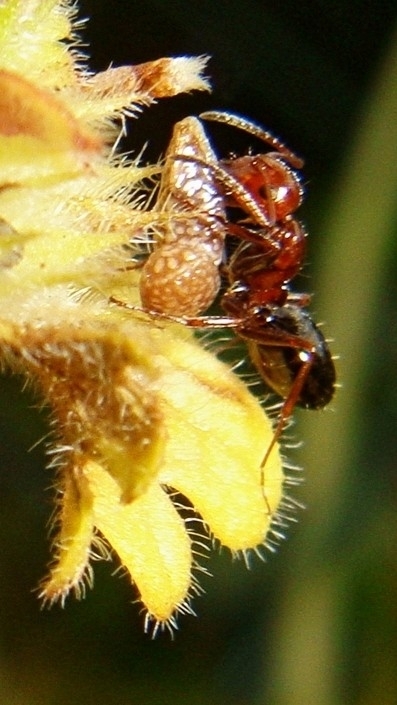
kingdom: Plantae
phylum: Tracheophyta
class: Magnoliopsida
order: Lamiales
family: Lamiaceae
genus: Lamium
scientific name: Lamium amplexicaule
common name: Henbit dead-nettle
